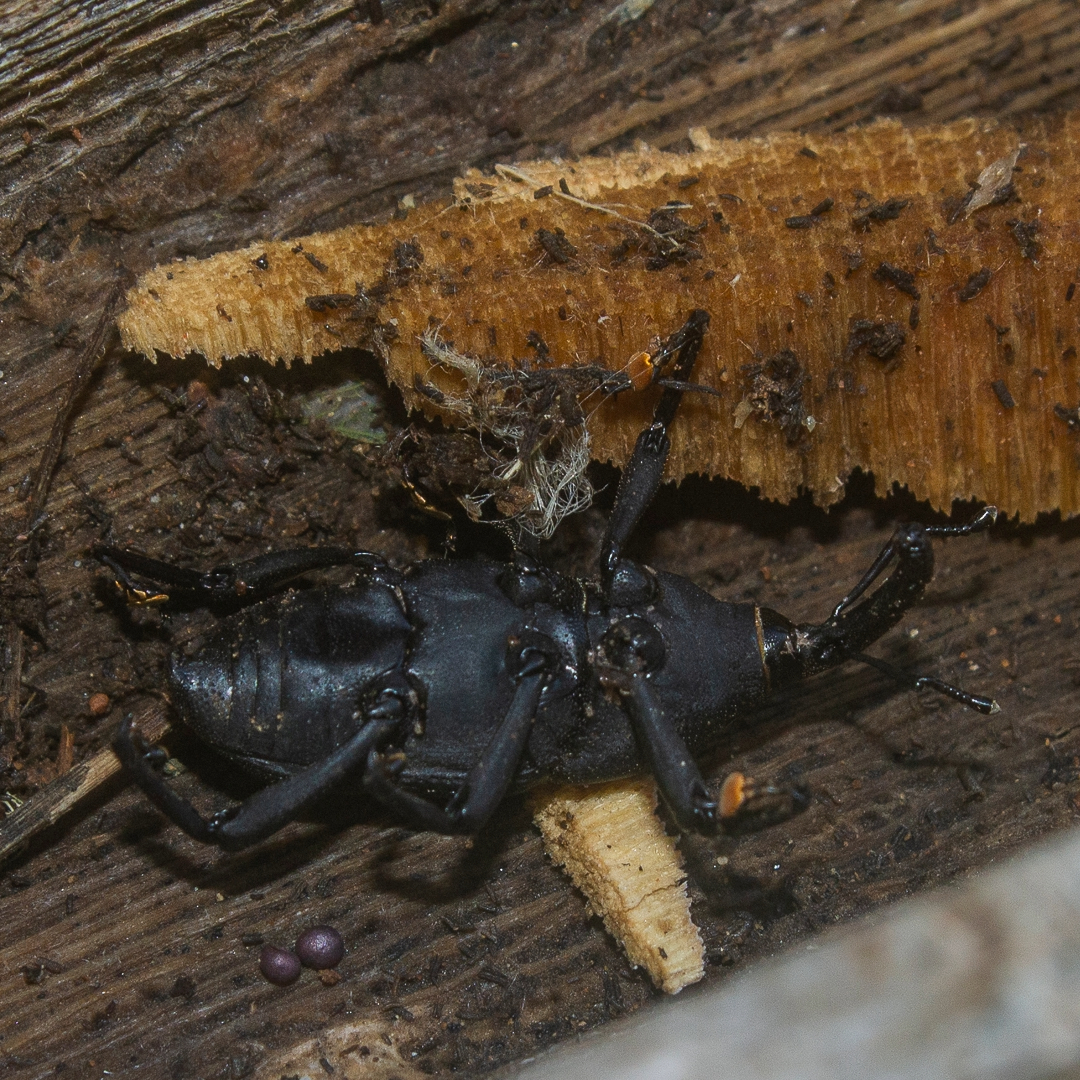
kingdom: Animalia
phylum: Arthropoda
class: Insecta
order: Coleoptera
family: Dryophthoridae
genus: Cactophagus
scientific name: Cactophagus
